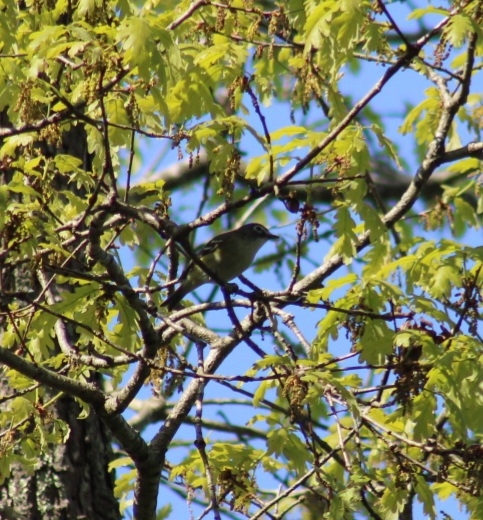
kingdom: Animalia
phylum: Chordata
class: Aves
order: Passeriformes
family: Vireonidae
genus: Vireo
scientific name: Vireo solitarius
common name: Blue-headed vireo
